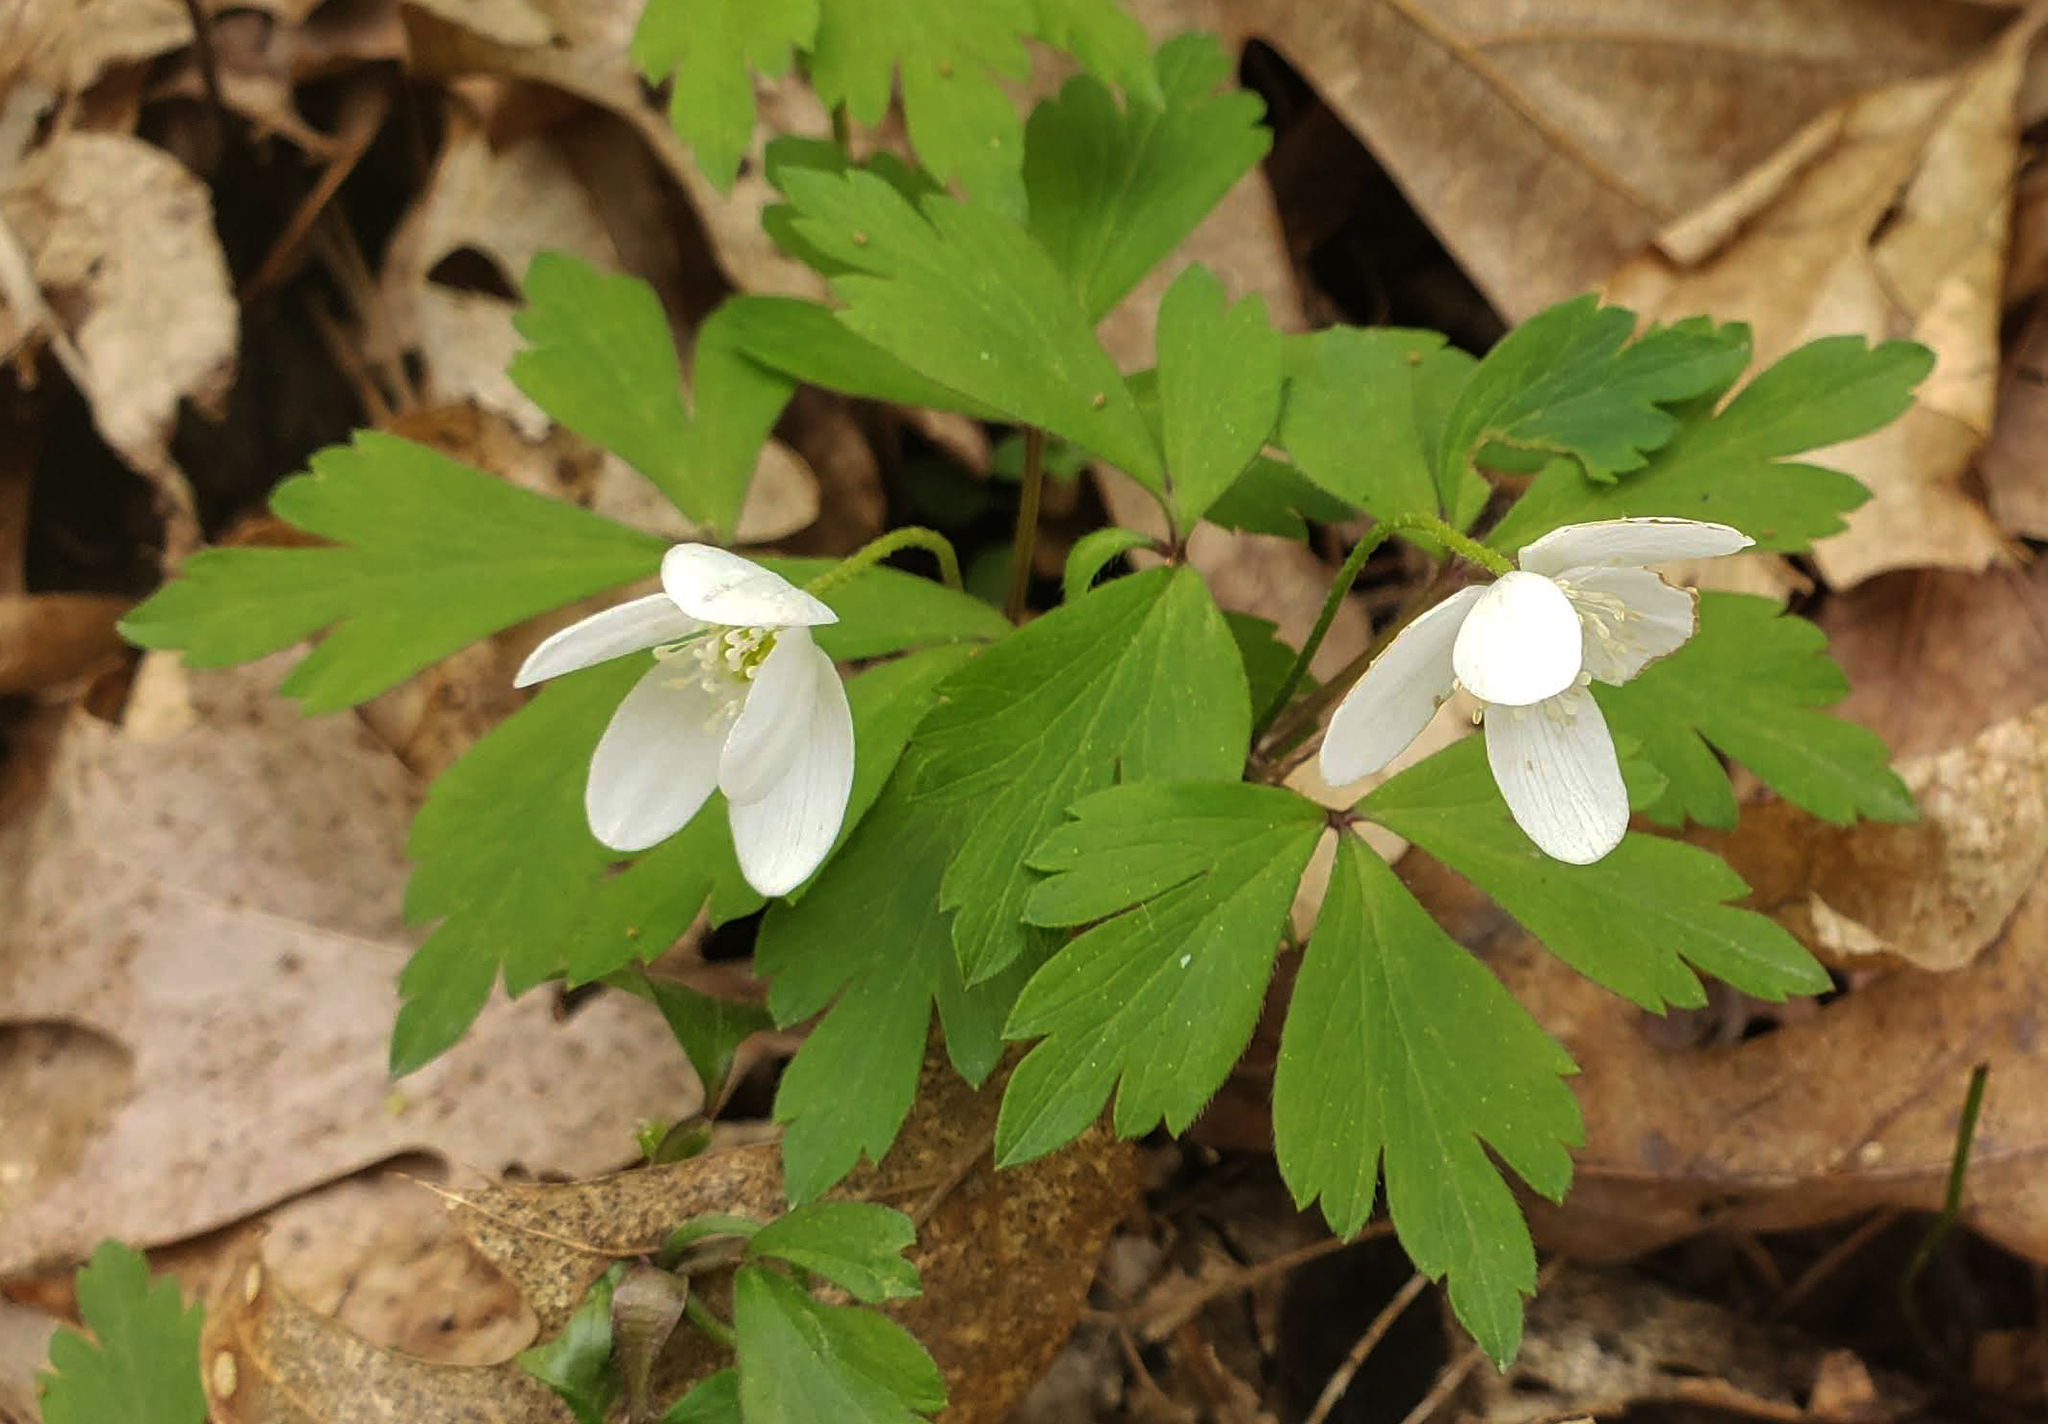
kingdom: Plantae
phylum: Tracheophyta
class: Magnoliopsida
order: Ranunculales
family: Ranunculaceae
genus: Anemone
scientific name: Anemone quinquefolia
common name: Wood anemone
